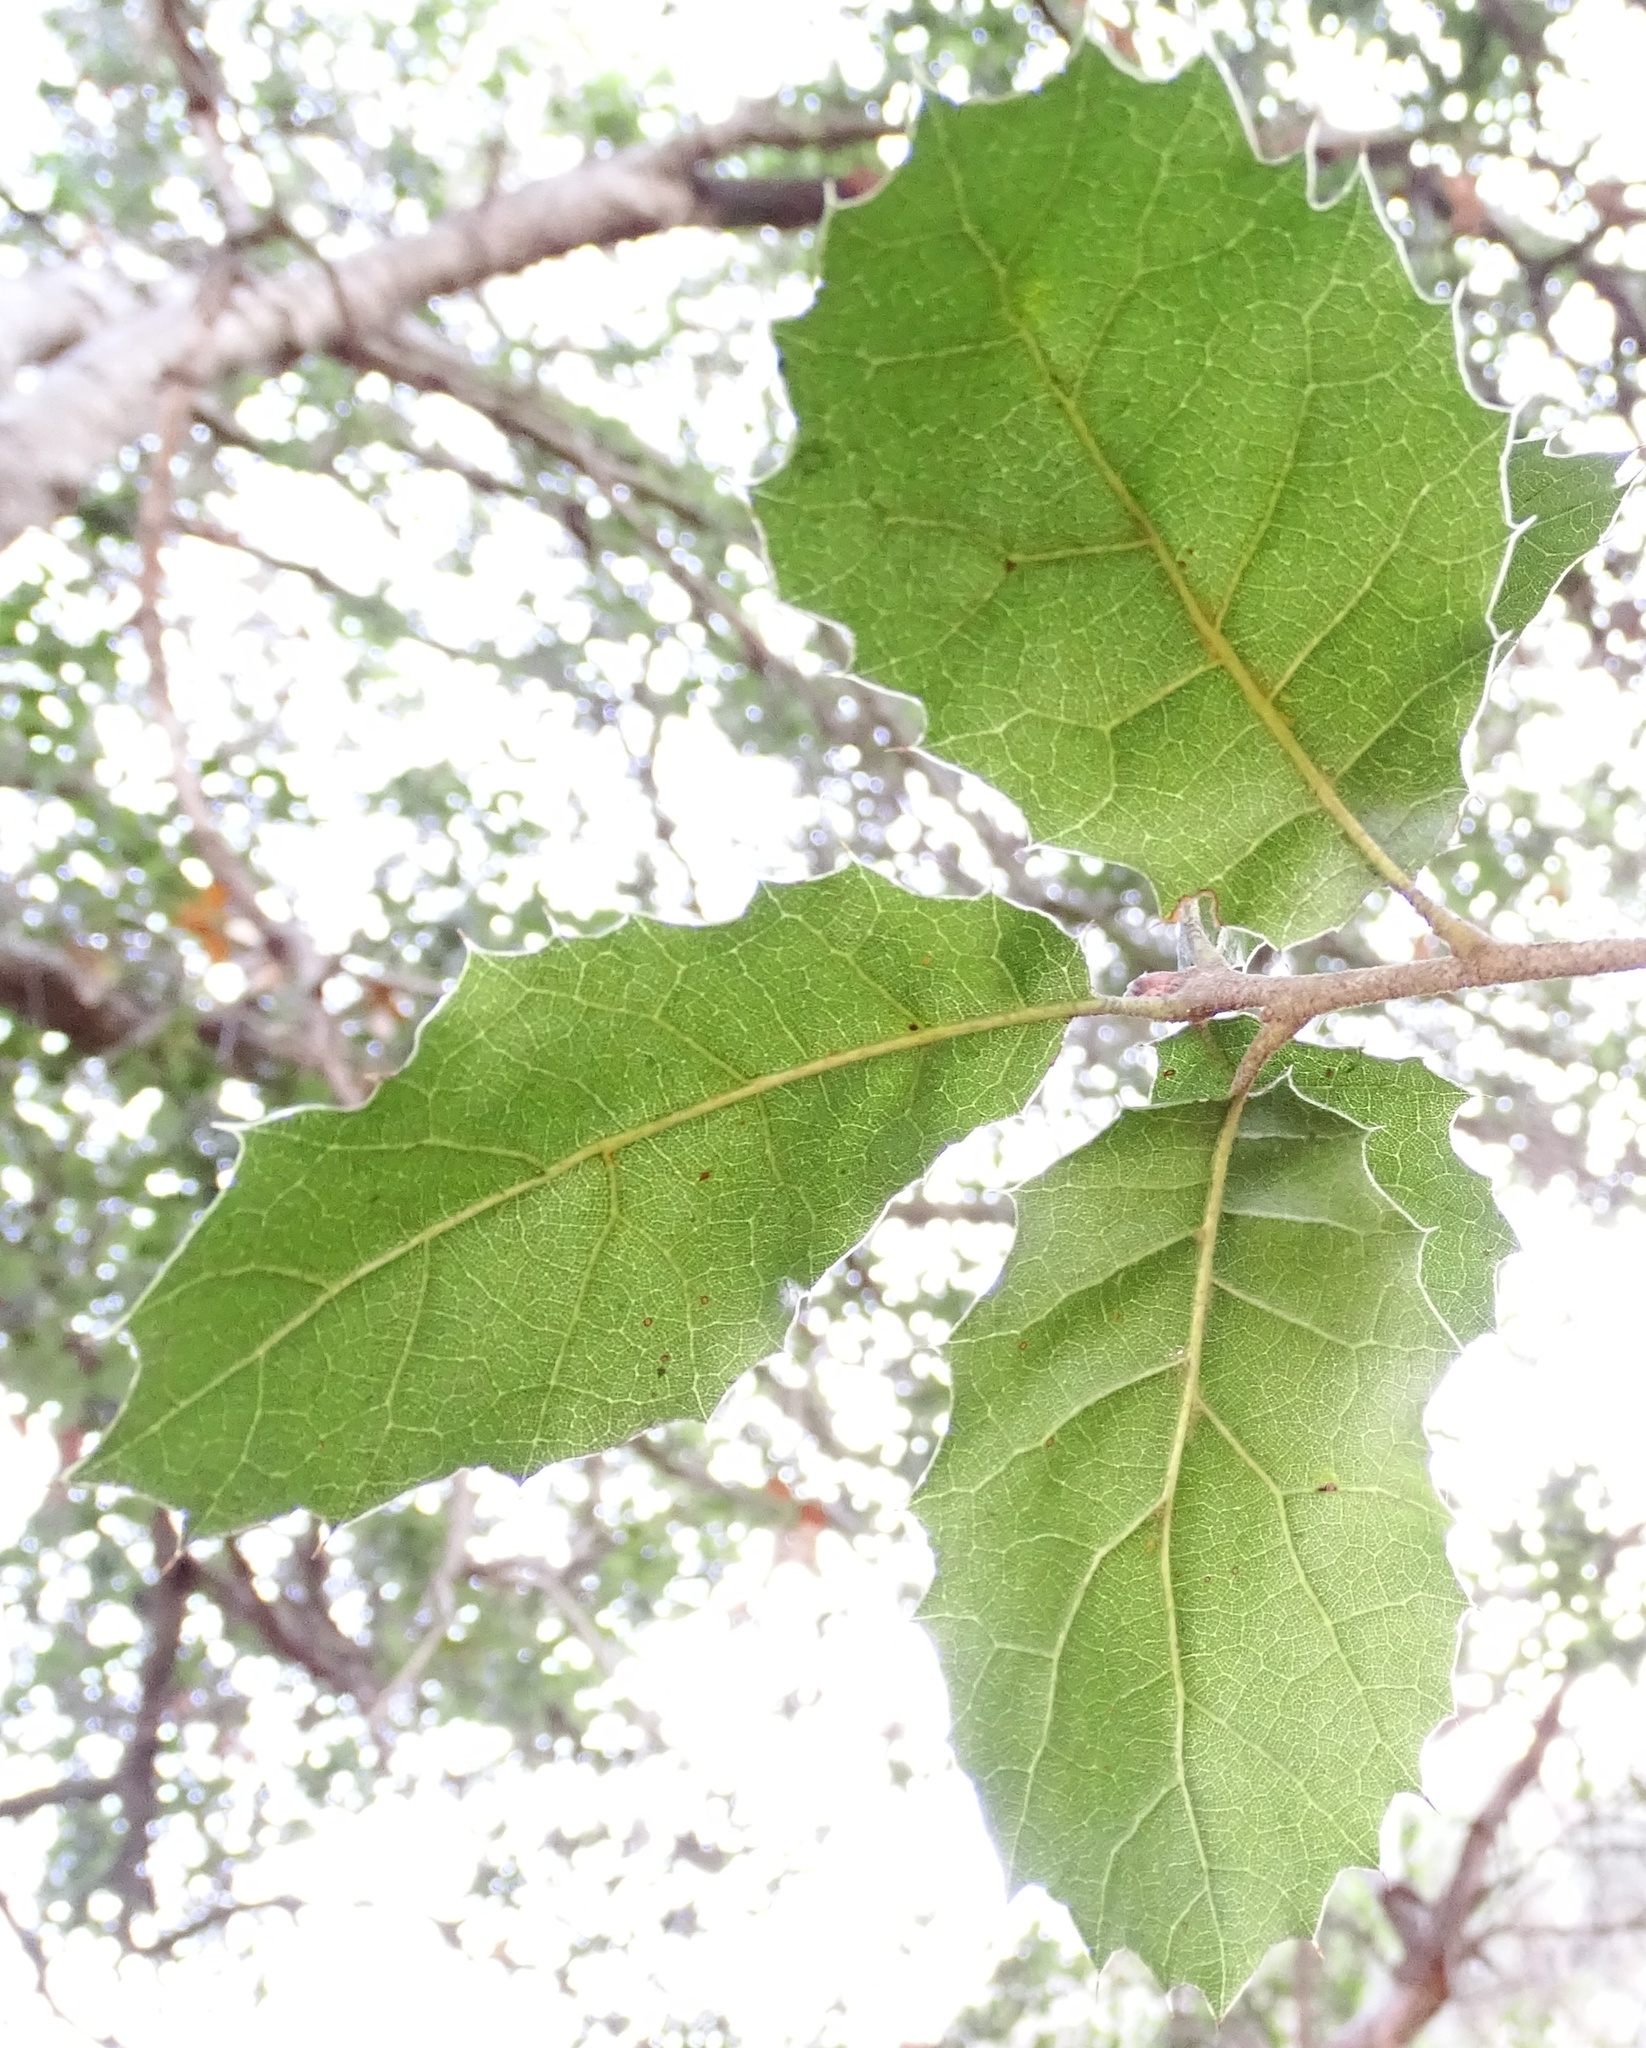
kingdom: Plantae
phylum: Tracheophyta
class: Magnoliopsida
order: Fagales
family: Fagaceae
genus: Quercus
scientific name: Quercus agrifolia
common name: California live oak
